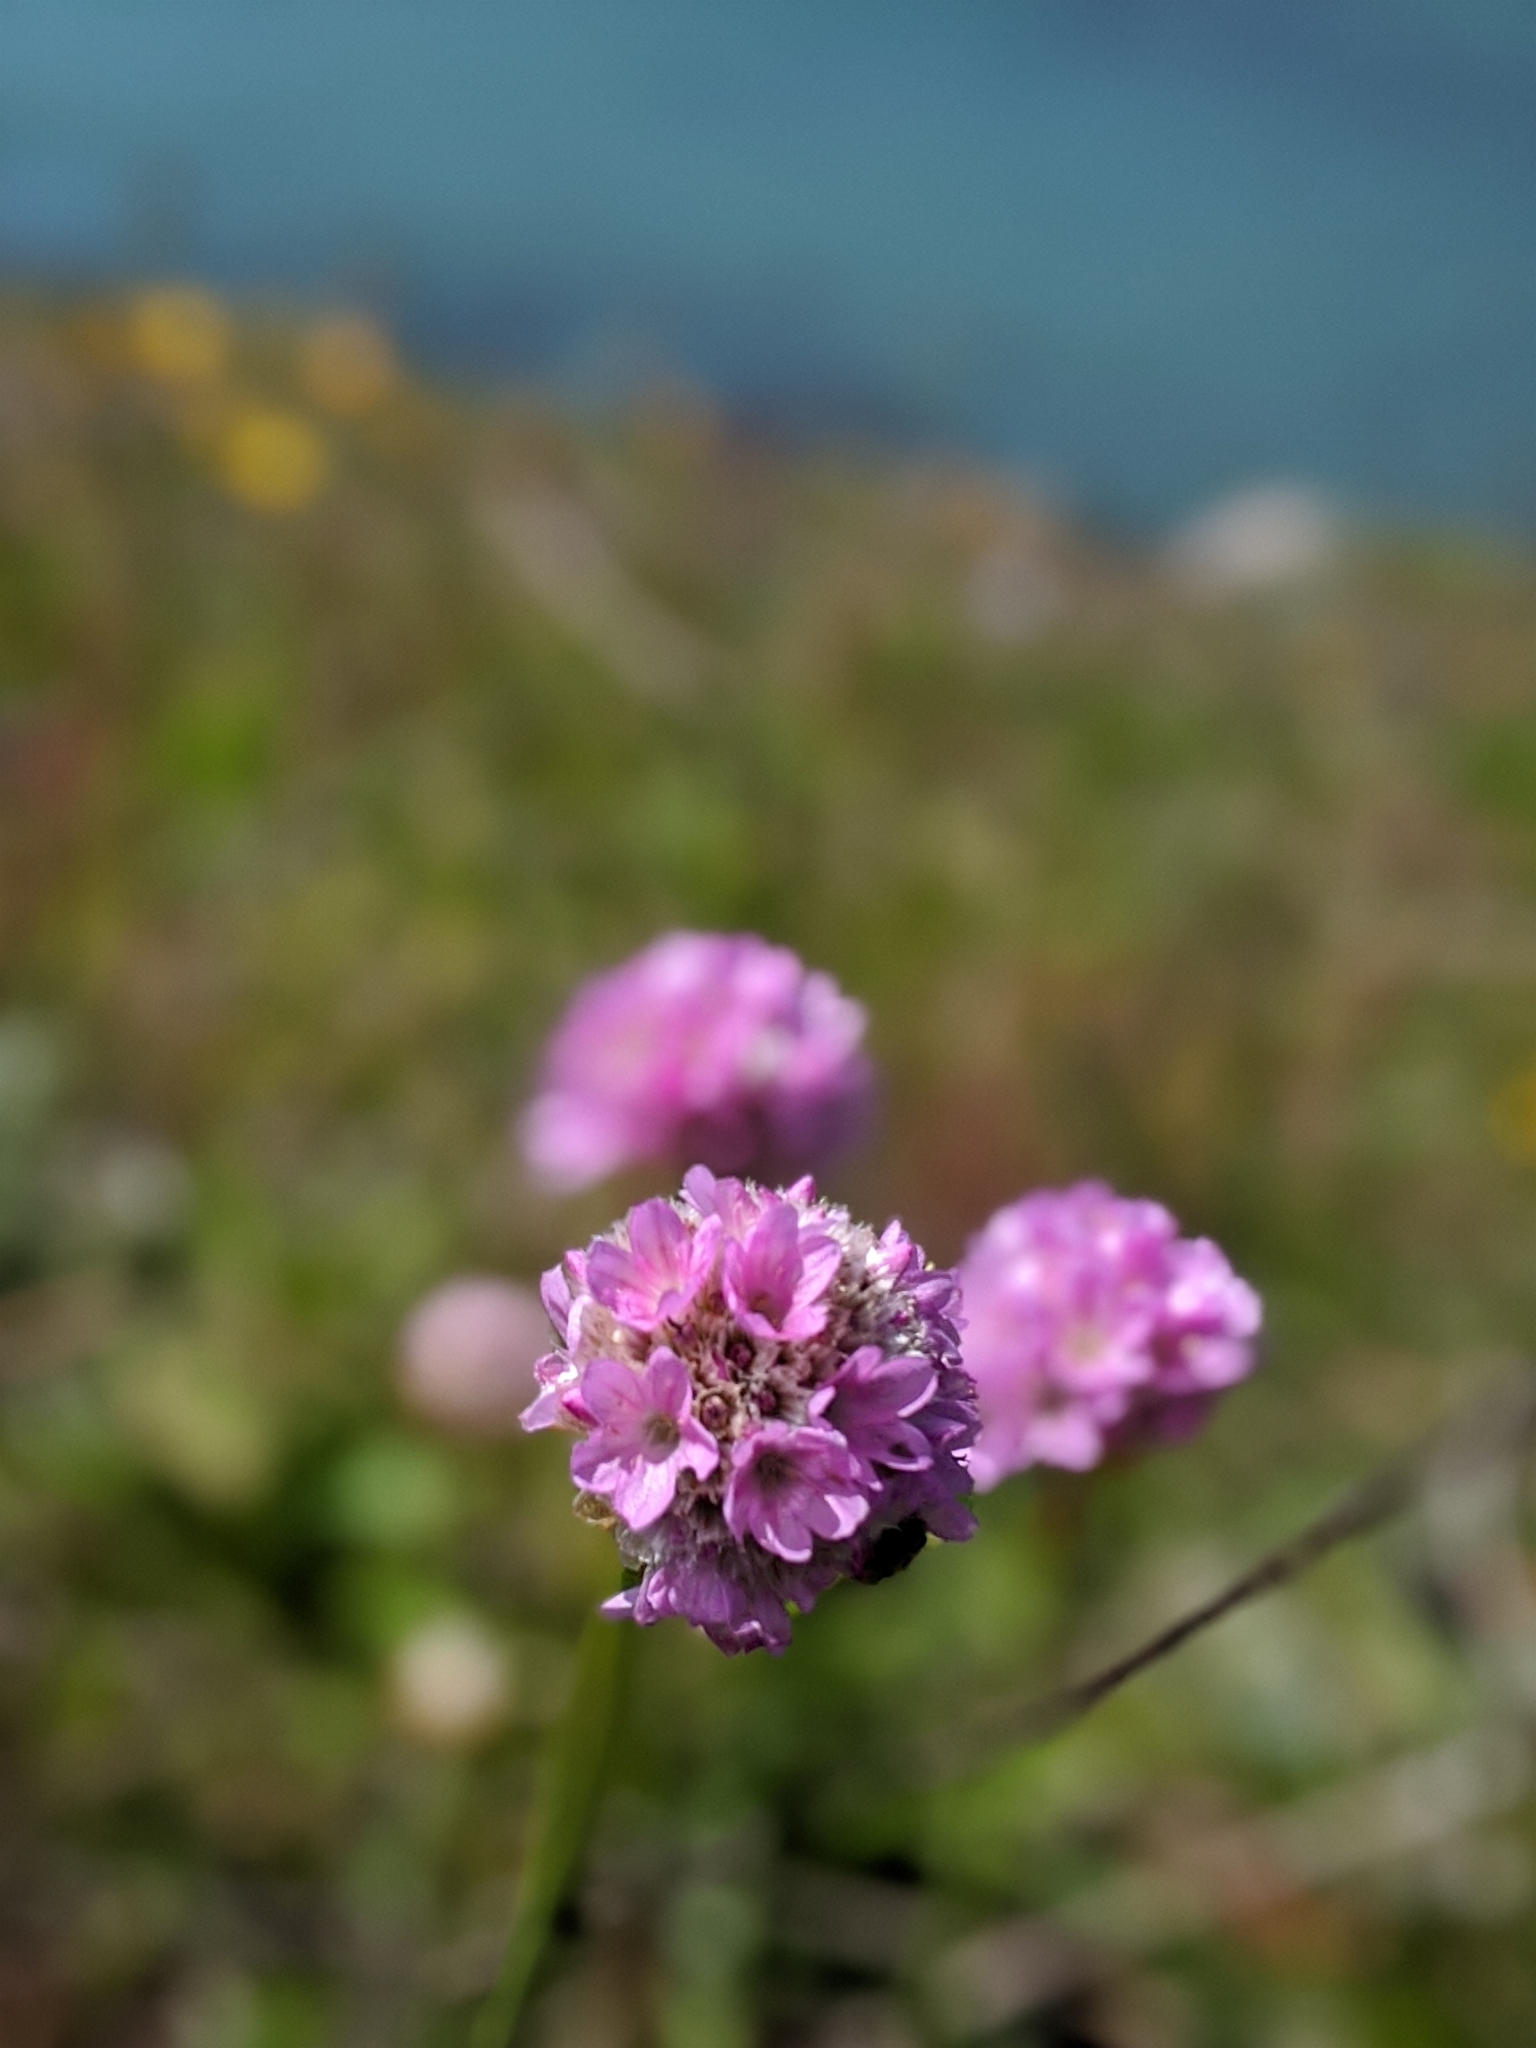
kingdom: Plantae
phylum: Tracheophyta
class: Magnoliopsida
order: Caryophyllales
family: Plumbaginaceae
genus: Armeria
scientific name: Armeria maritima
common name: Thrift
